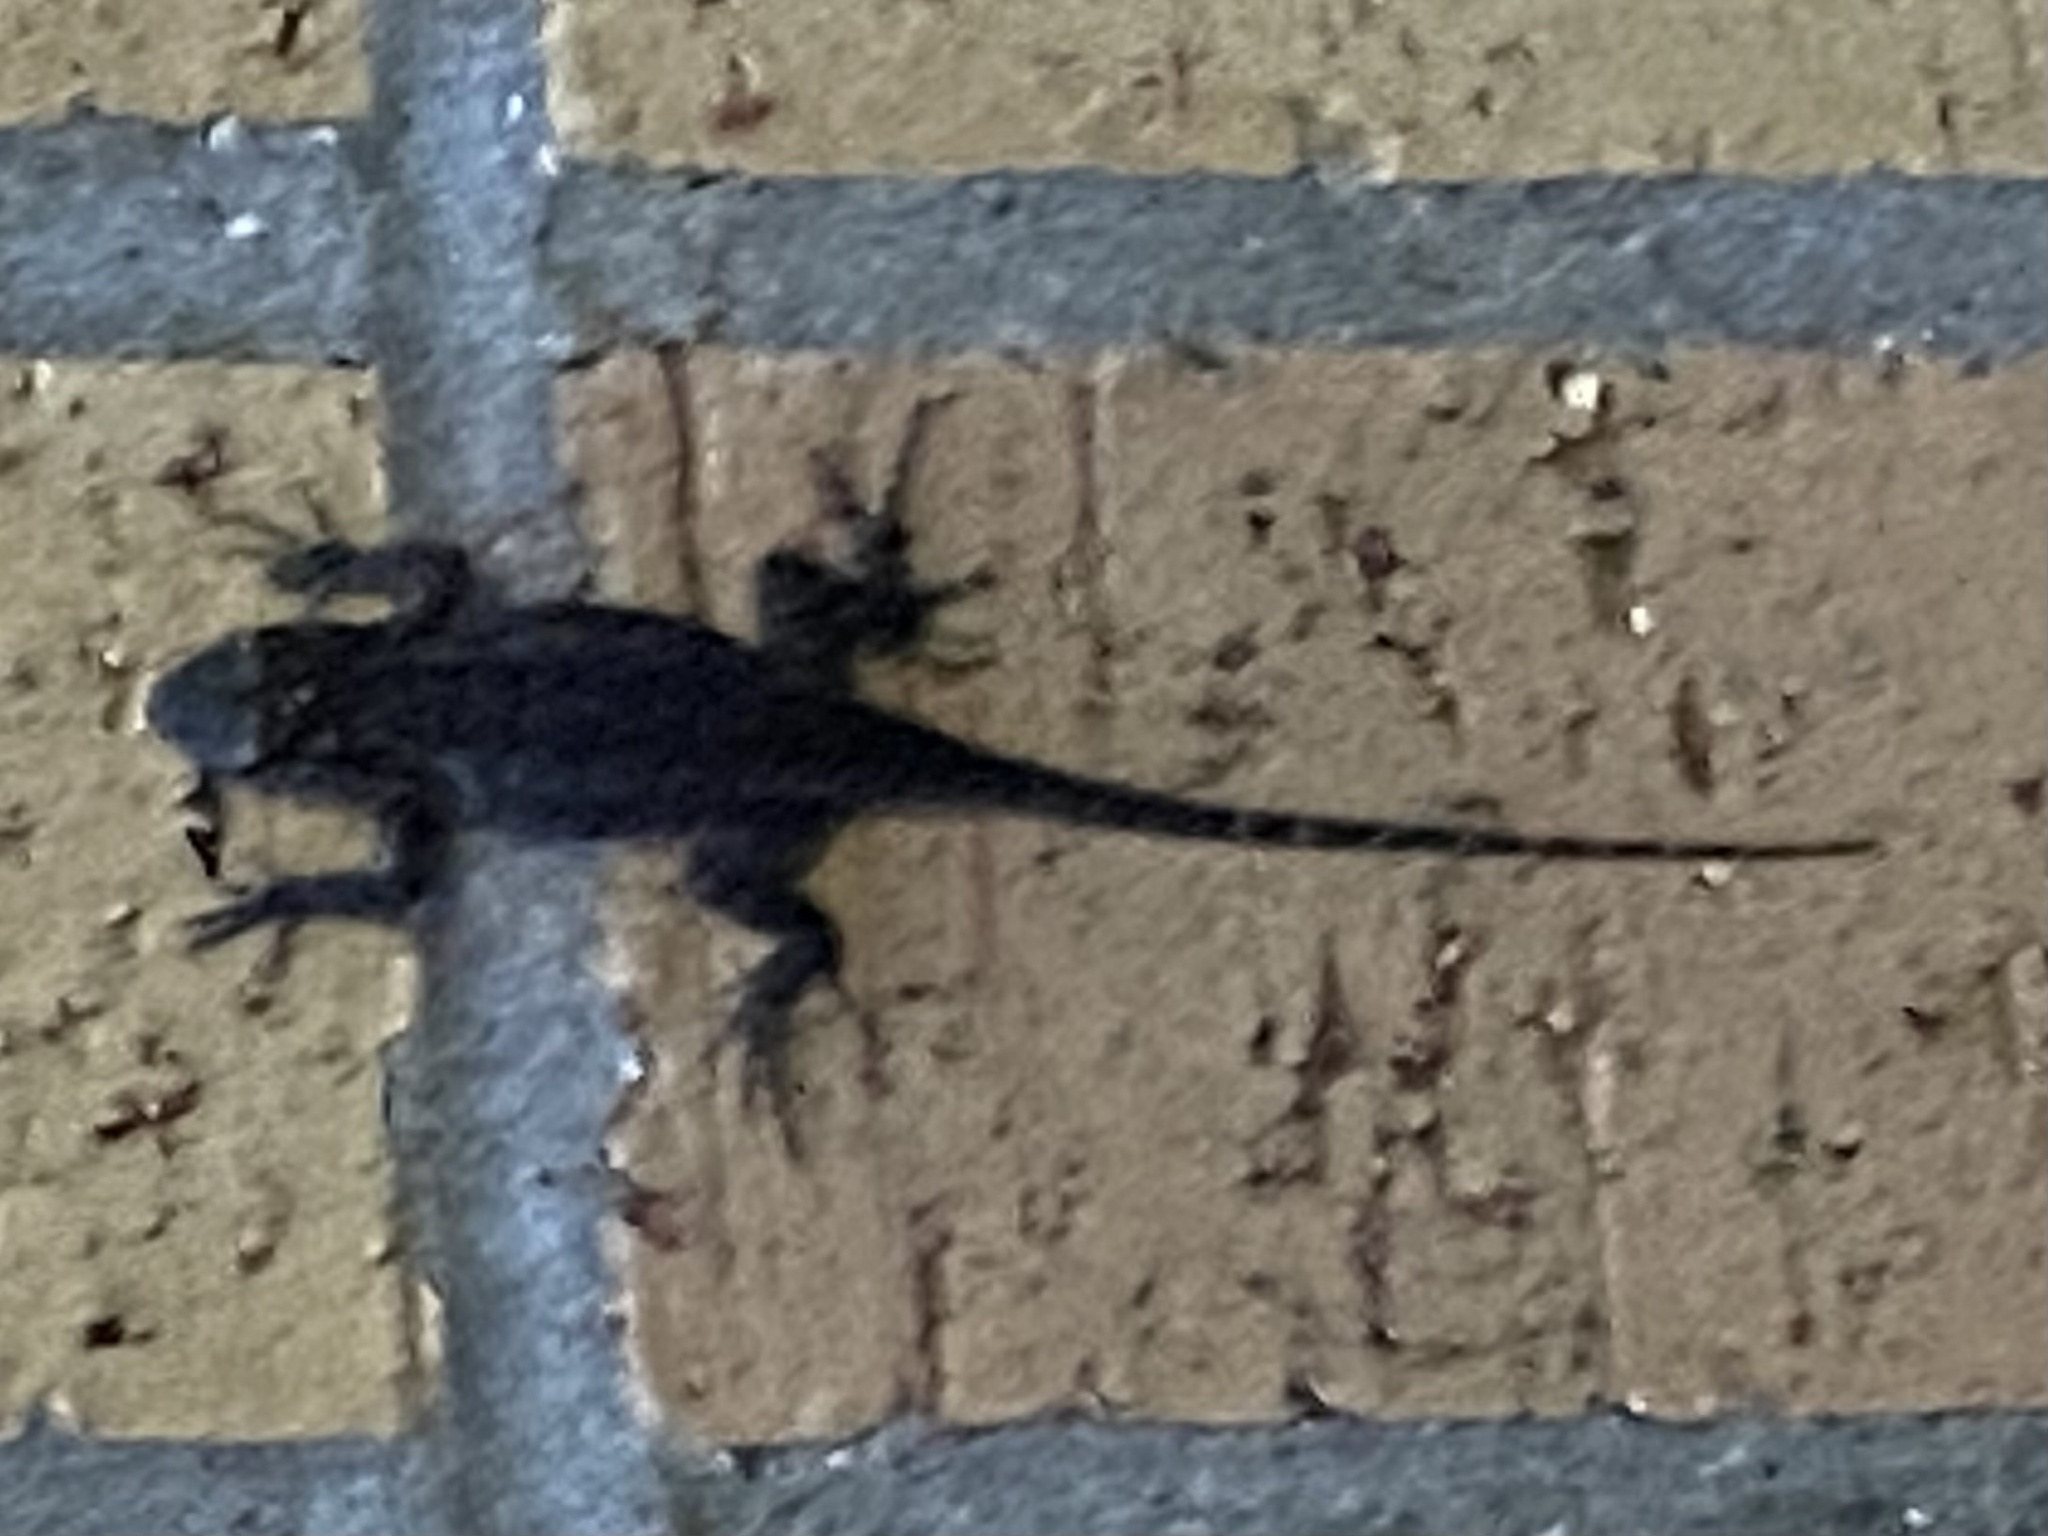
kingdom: Animalia
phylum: Chordata
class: Squamata
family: Phrynosomatidae
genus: Sceloporus
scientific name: Sceloporus olivaceus
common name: Texas spiny lizard
